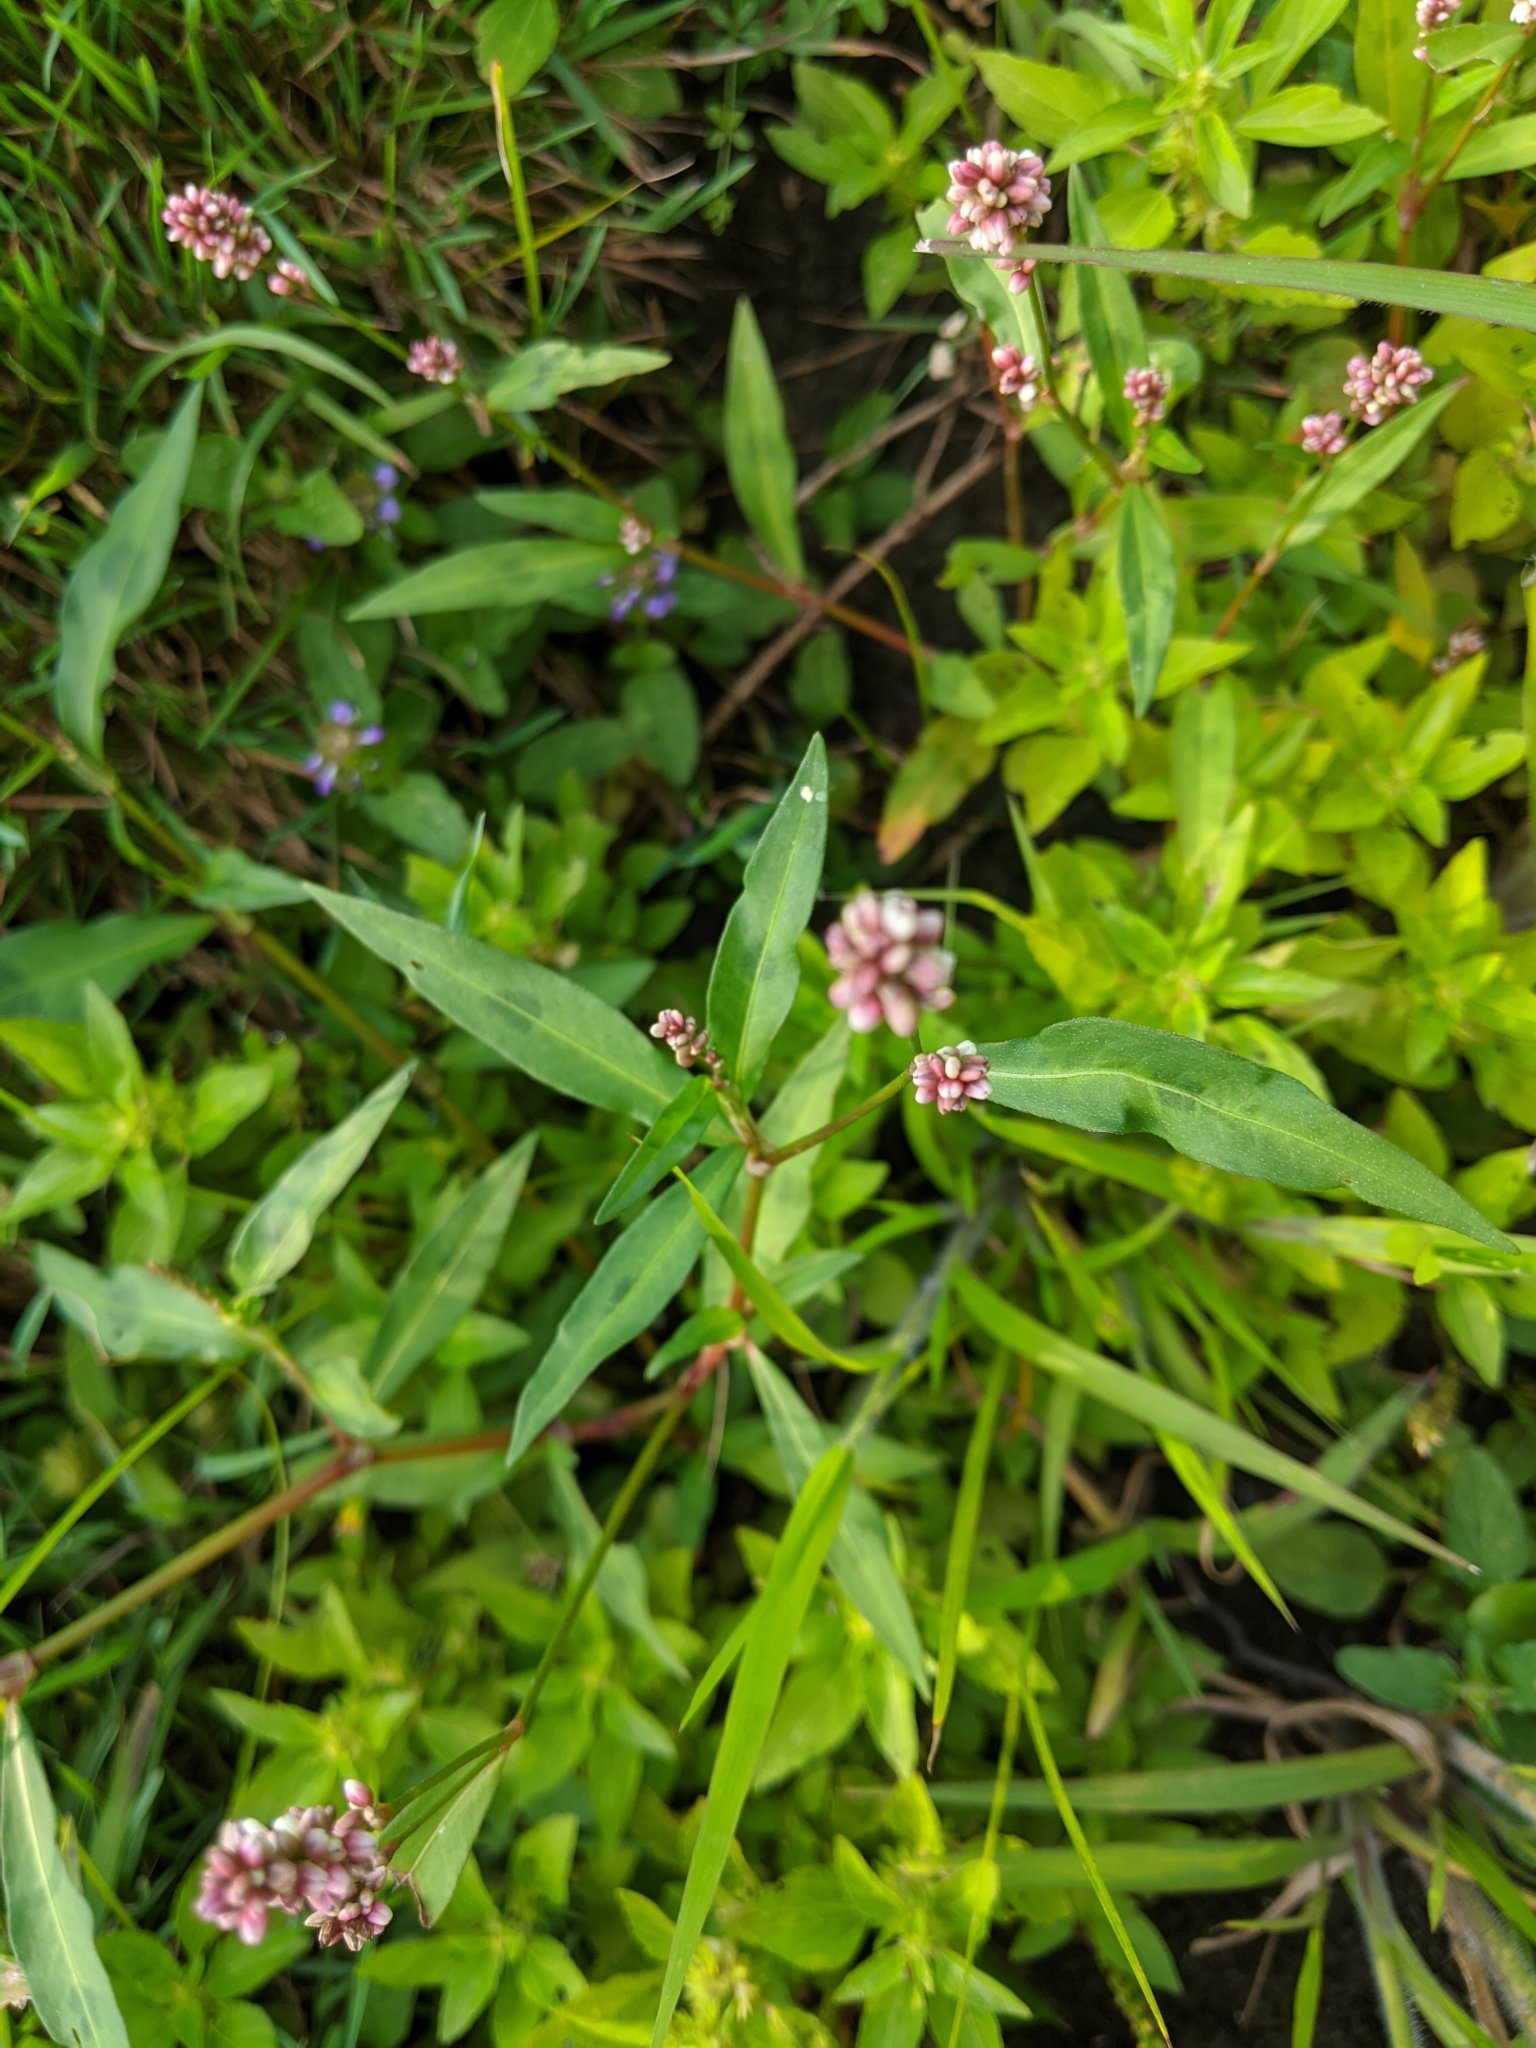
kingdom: Plantae
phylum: Tracheophyta
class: Magnoliopsida
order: Caryophyllales
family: Polygonaceae
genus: Persicaria
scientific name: Persicaria maculosa
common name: Redshank
